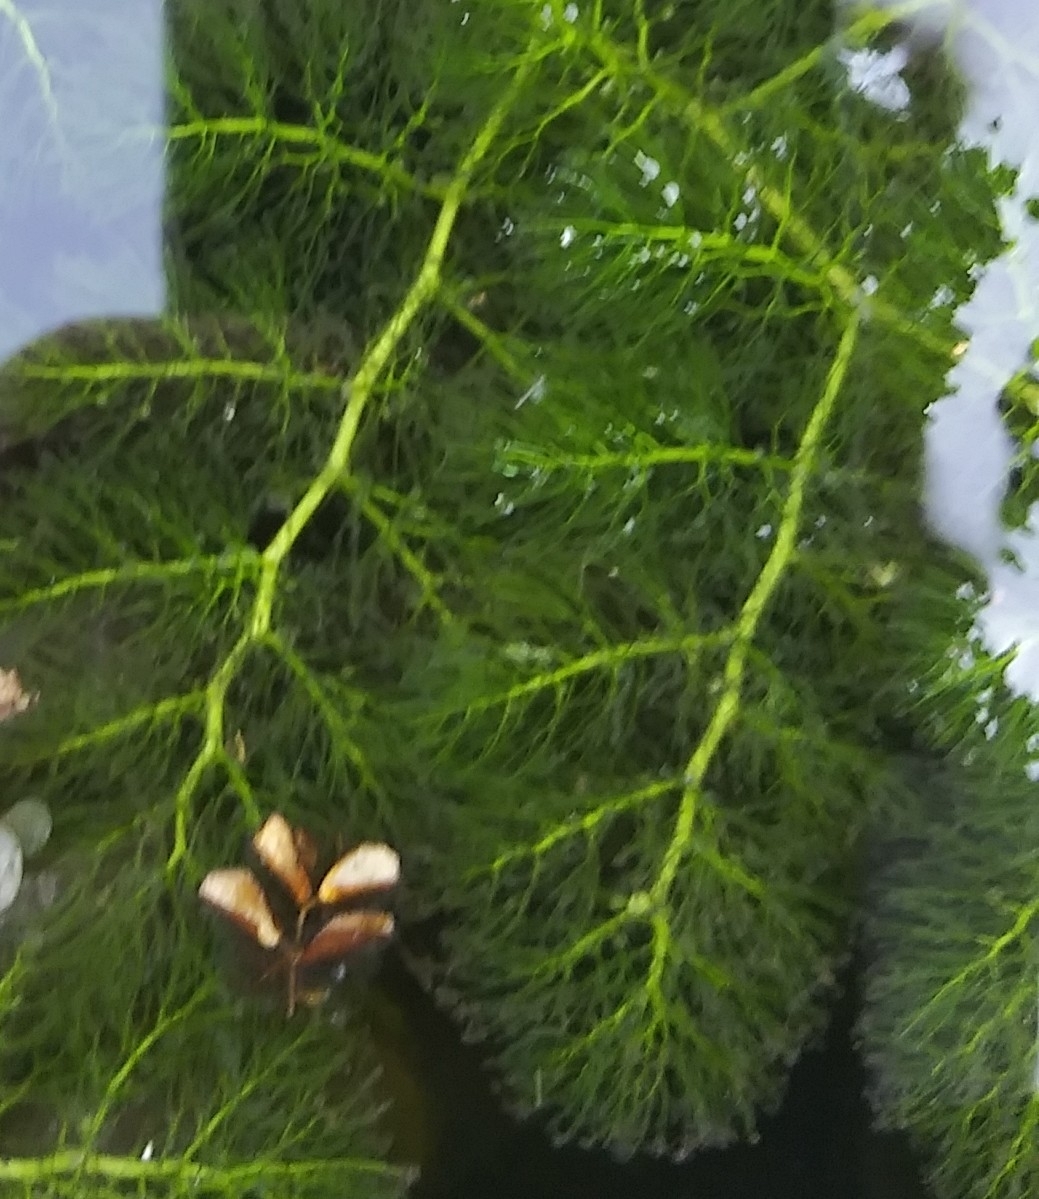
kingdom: Plantae
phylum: Tracheophyta
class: Magnoliopsida
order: Lamiales
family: Lentibulariaceae
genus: Utricularia
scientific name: Utricularia foliosa
